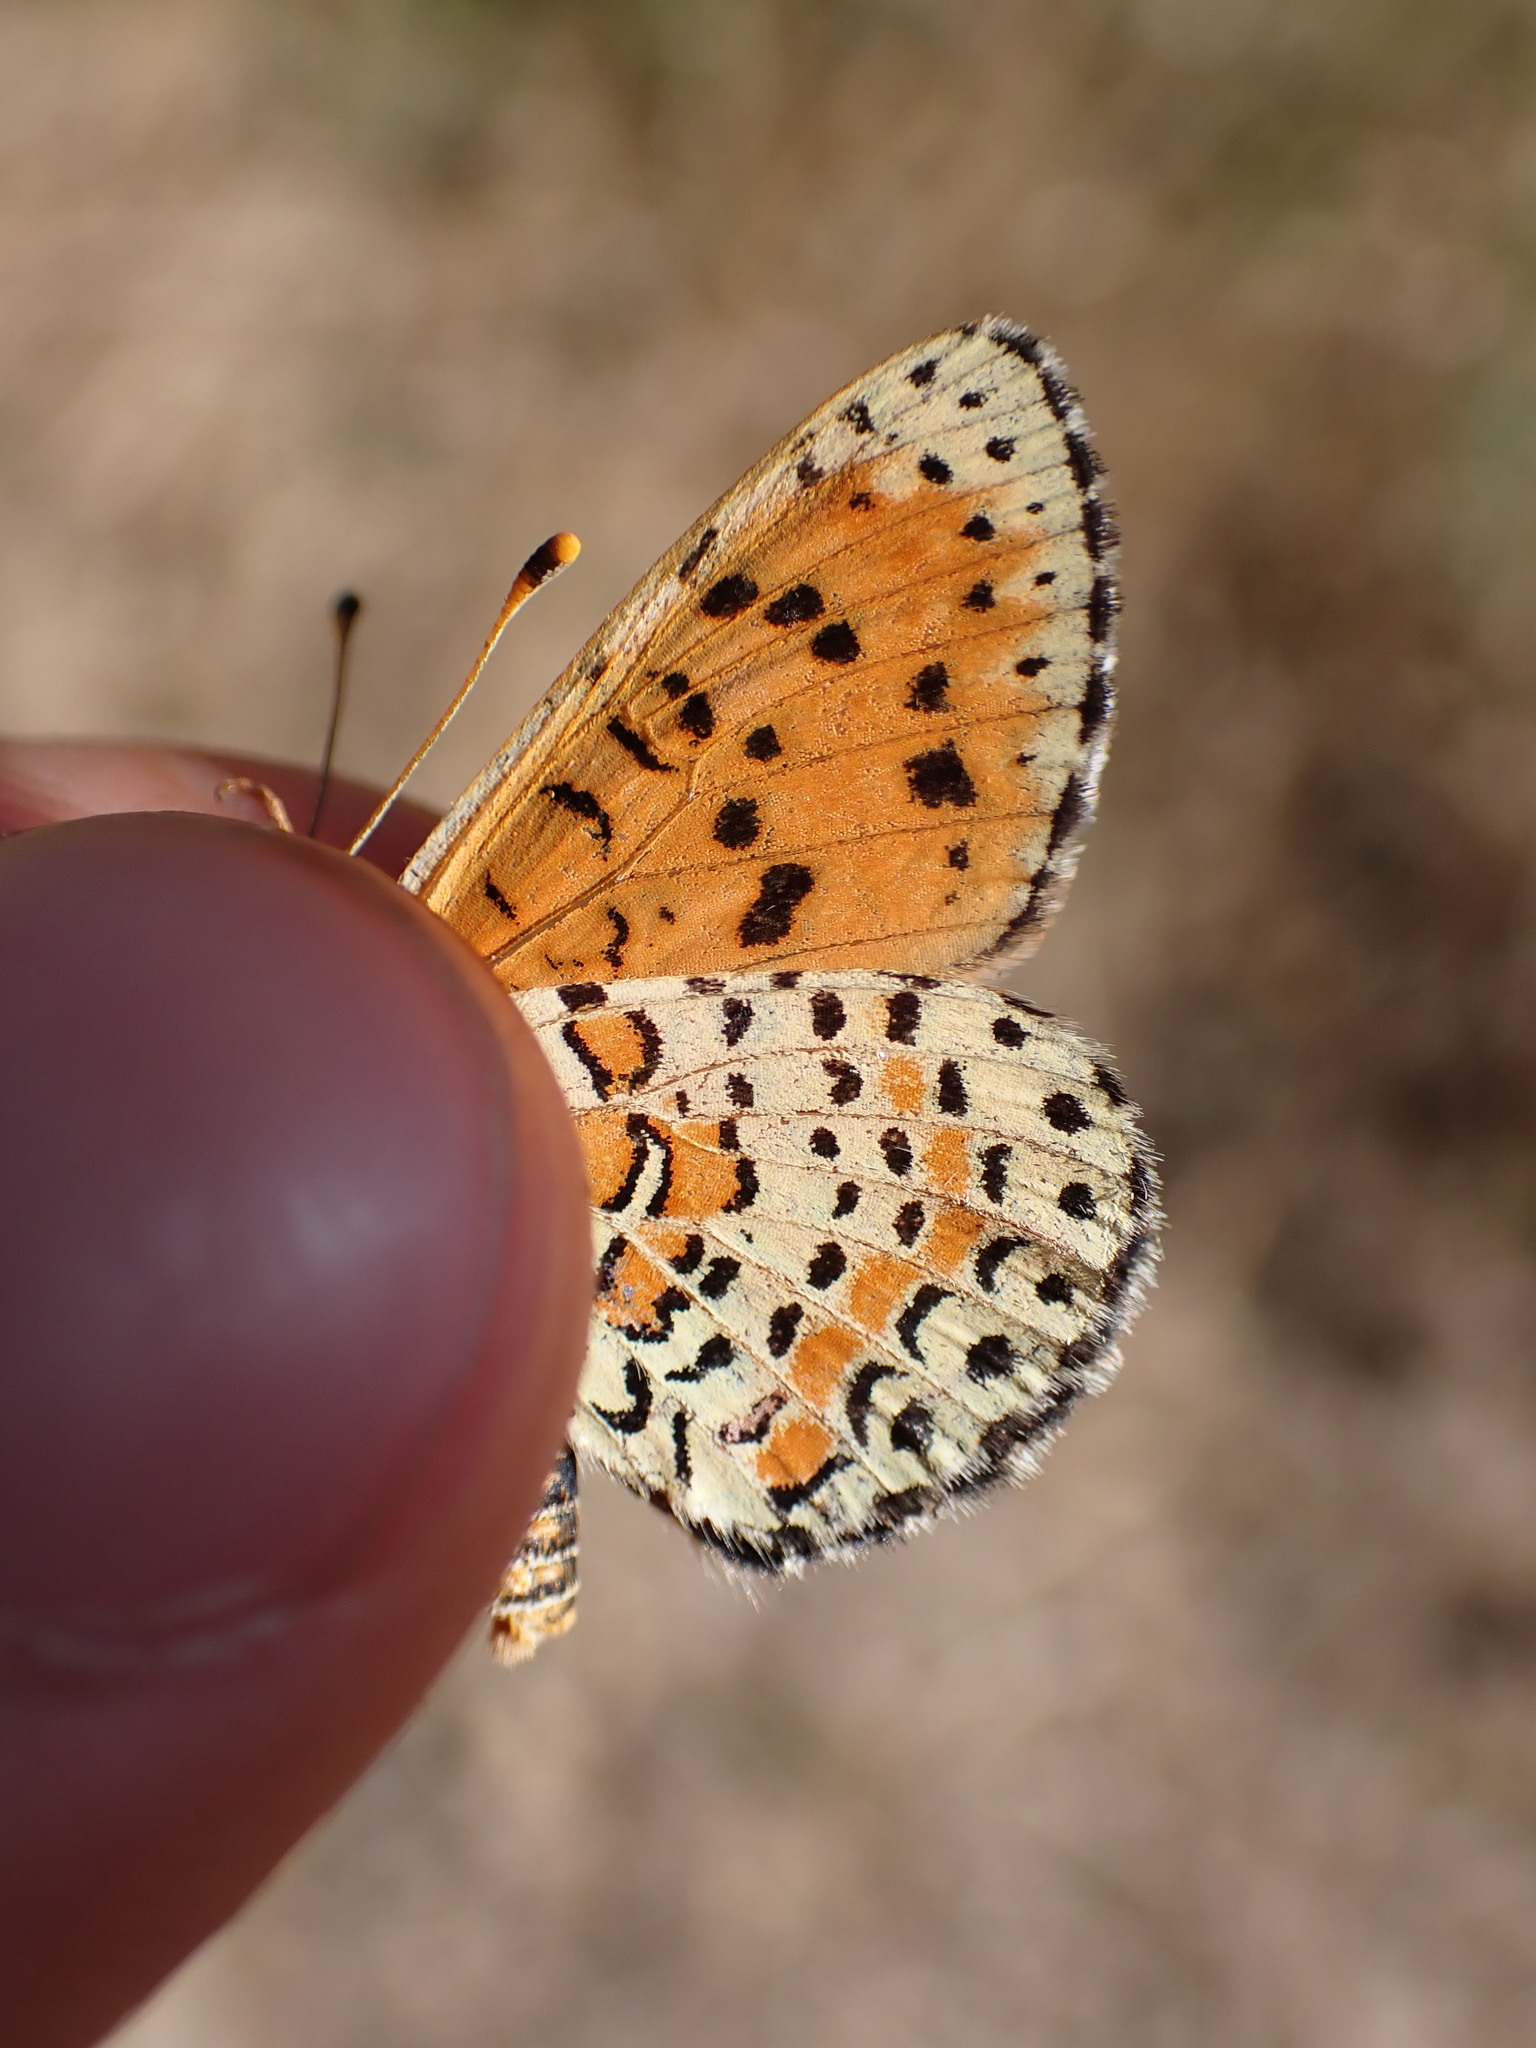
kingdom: Animalia
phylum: Arthropoda
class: Insecta
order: Lepidoptera
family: Nymphalidae
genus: Melitaea
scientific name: Melitaea didyma
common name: Spotted fritillary
